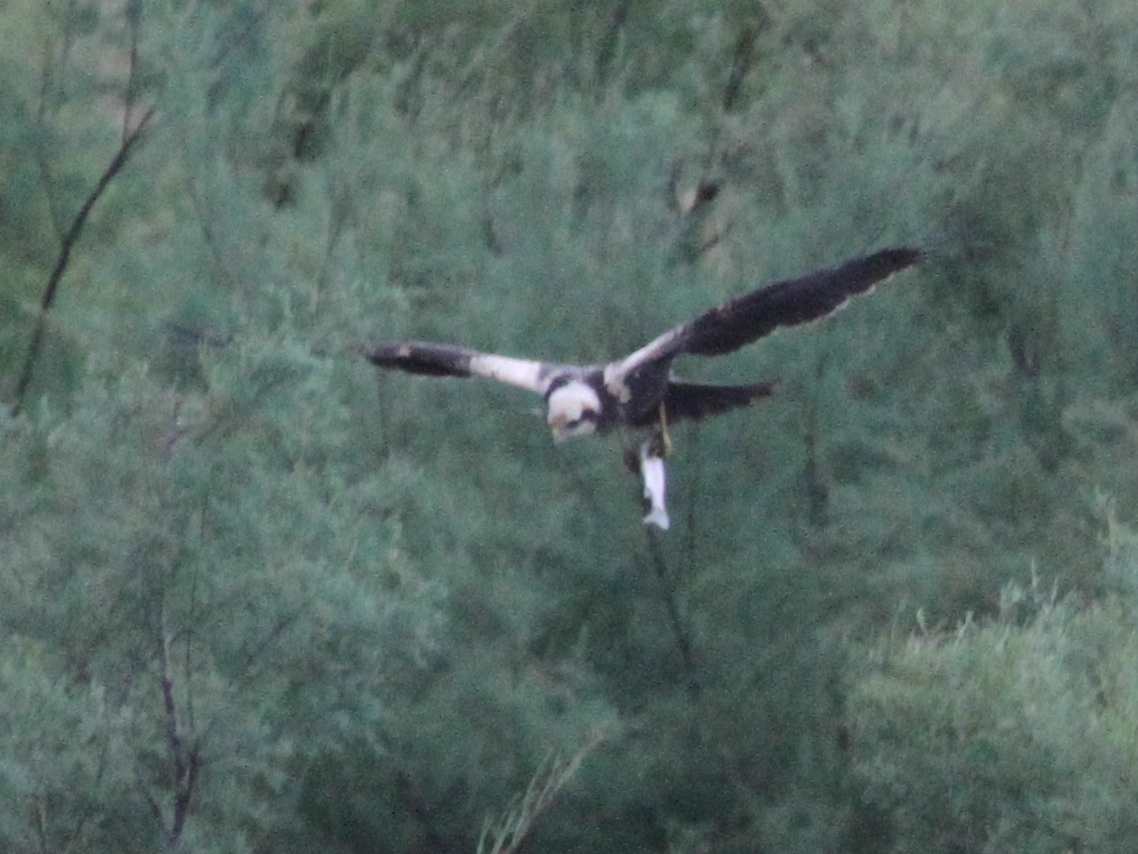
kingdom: Animalia
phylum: Chordata
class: Aves
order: Accipitriformes
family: Accipitridae
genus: Circus
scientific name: Circus aeruginosus
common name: Western marsh harrier
